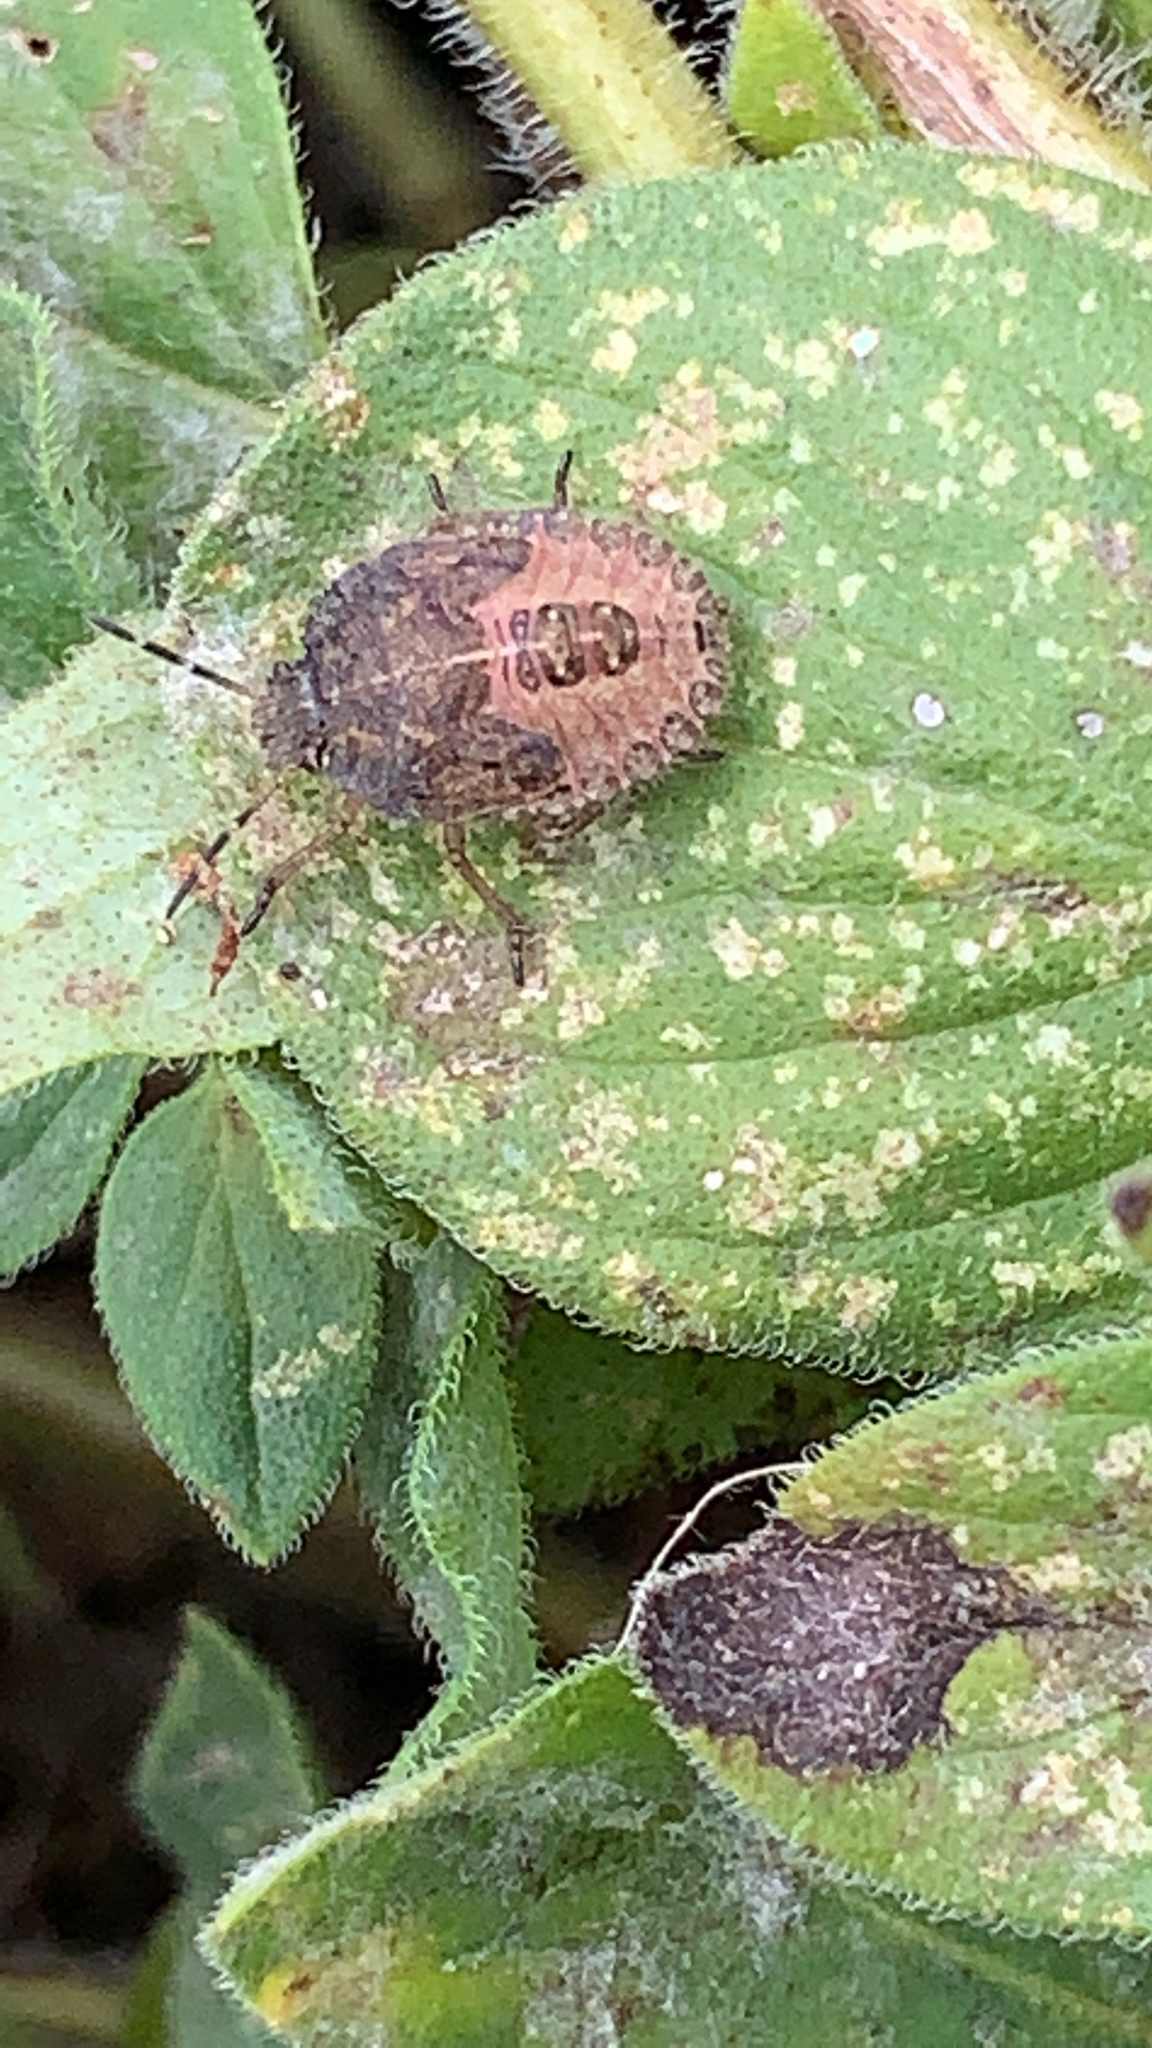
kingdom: Animalia
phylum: Arthropoda
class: Insecta
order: Hemiptera
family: Pentatomidae
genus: Dolycoris
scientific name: Dolycoris baccarum
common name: Sloe bug
